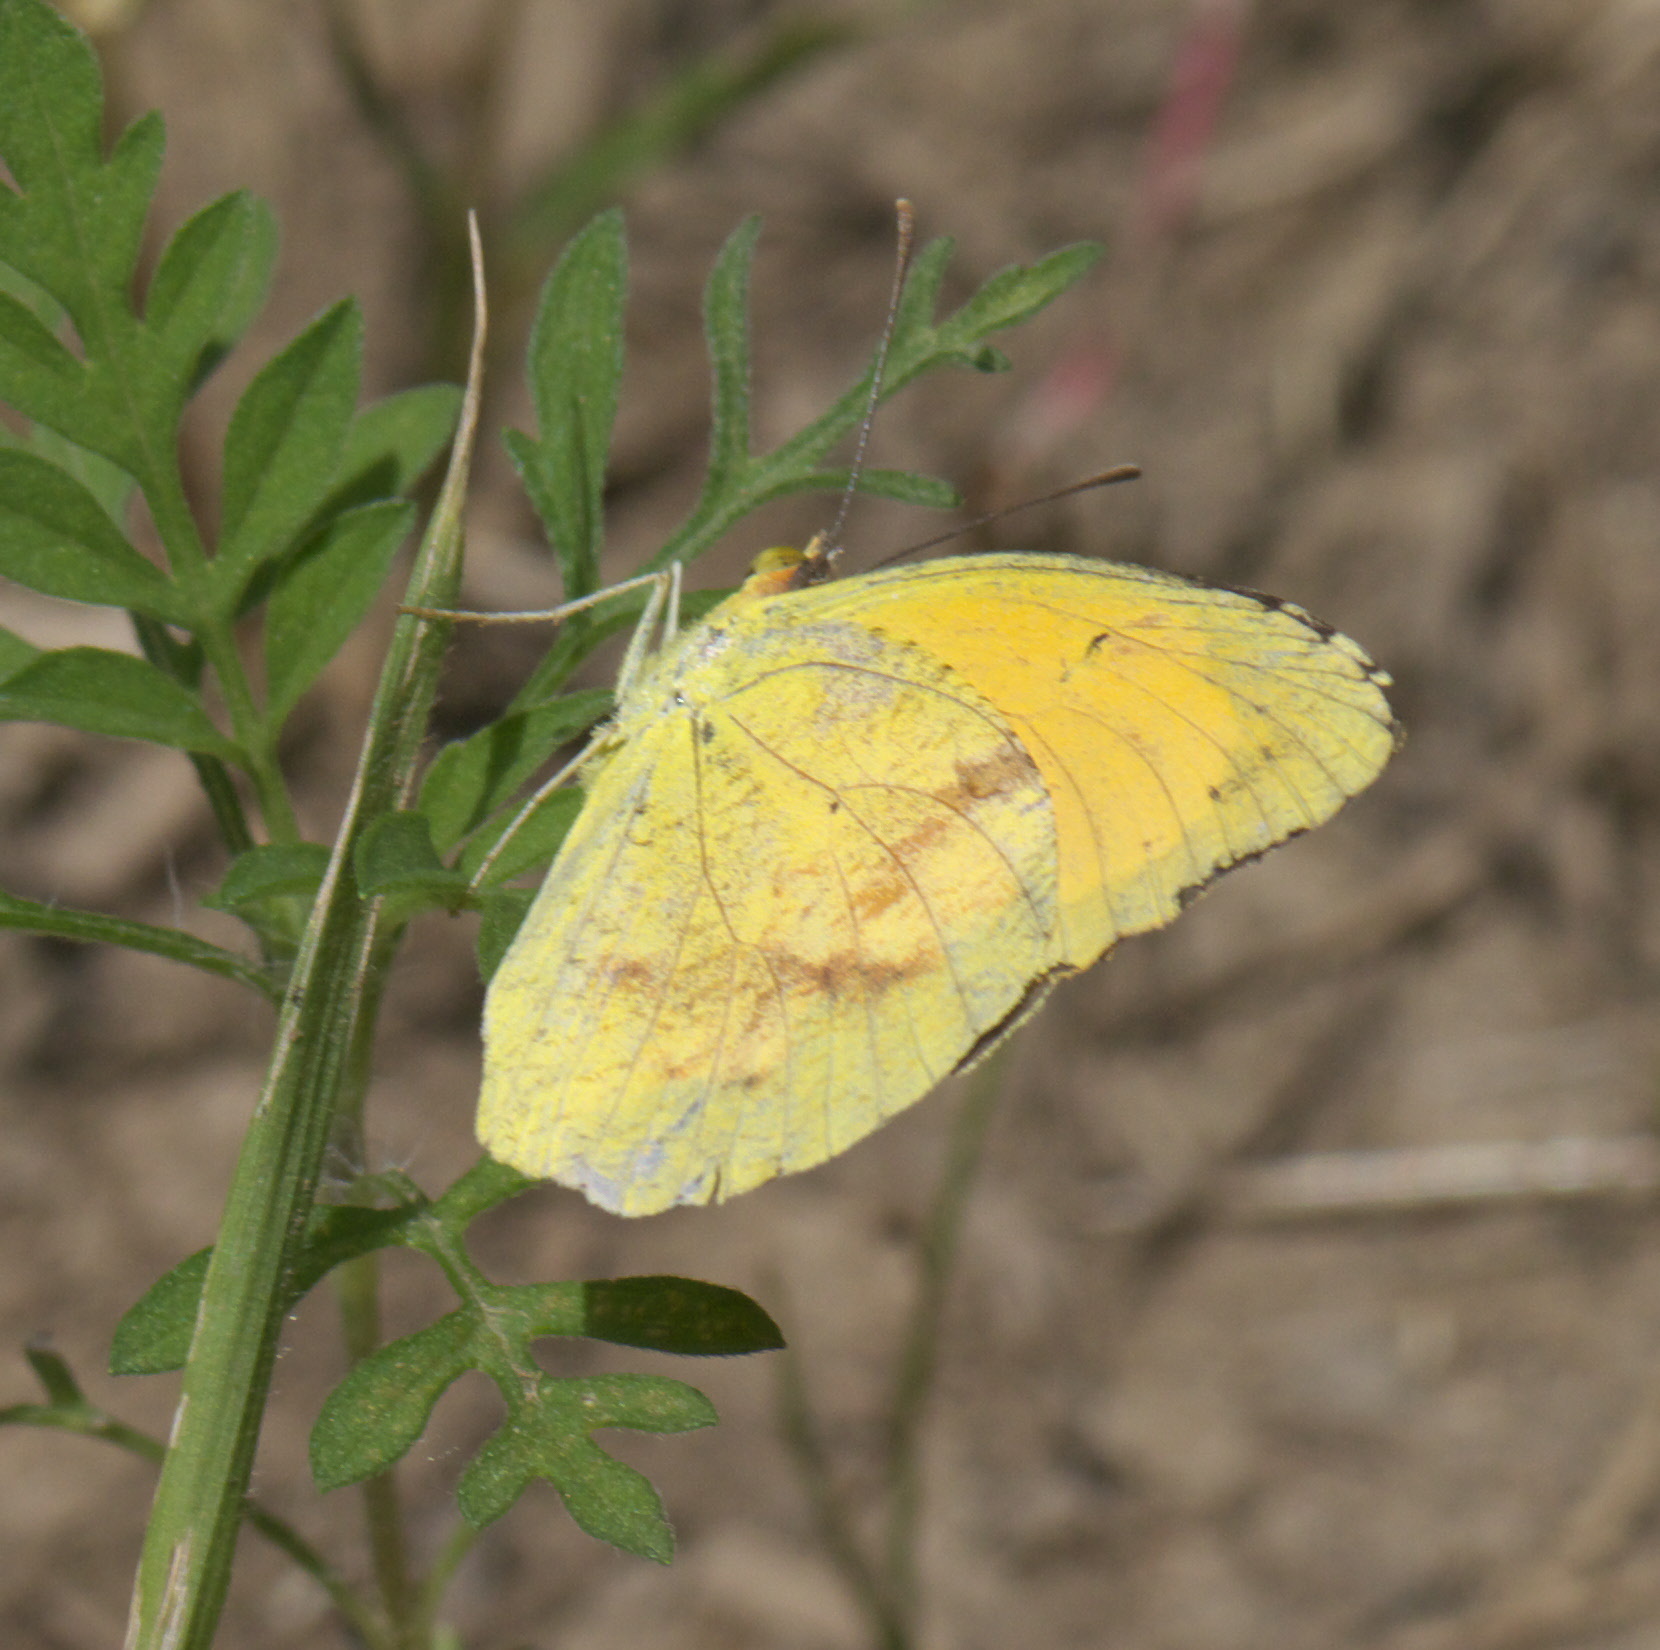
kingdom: Animalia
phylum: Arthropoda
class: Insecta
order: Lepidoptera
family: Pieridae
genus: Abaeis
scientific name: Abaeis nicippe
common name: Sleepy orange
